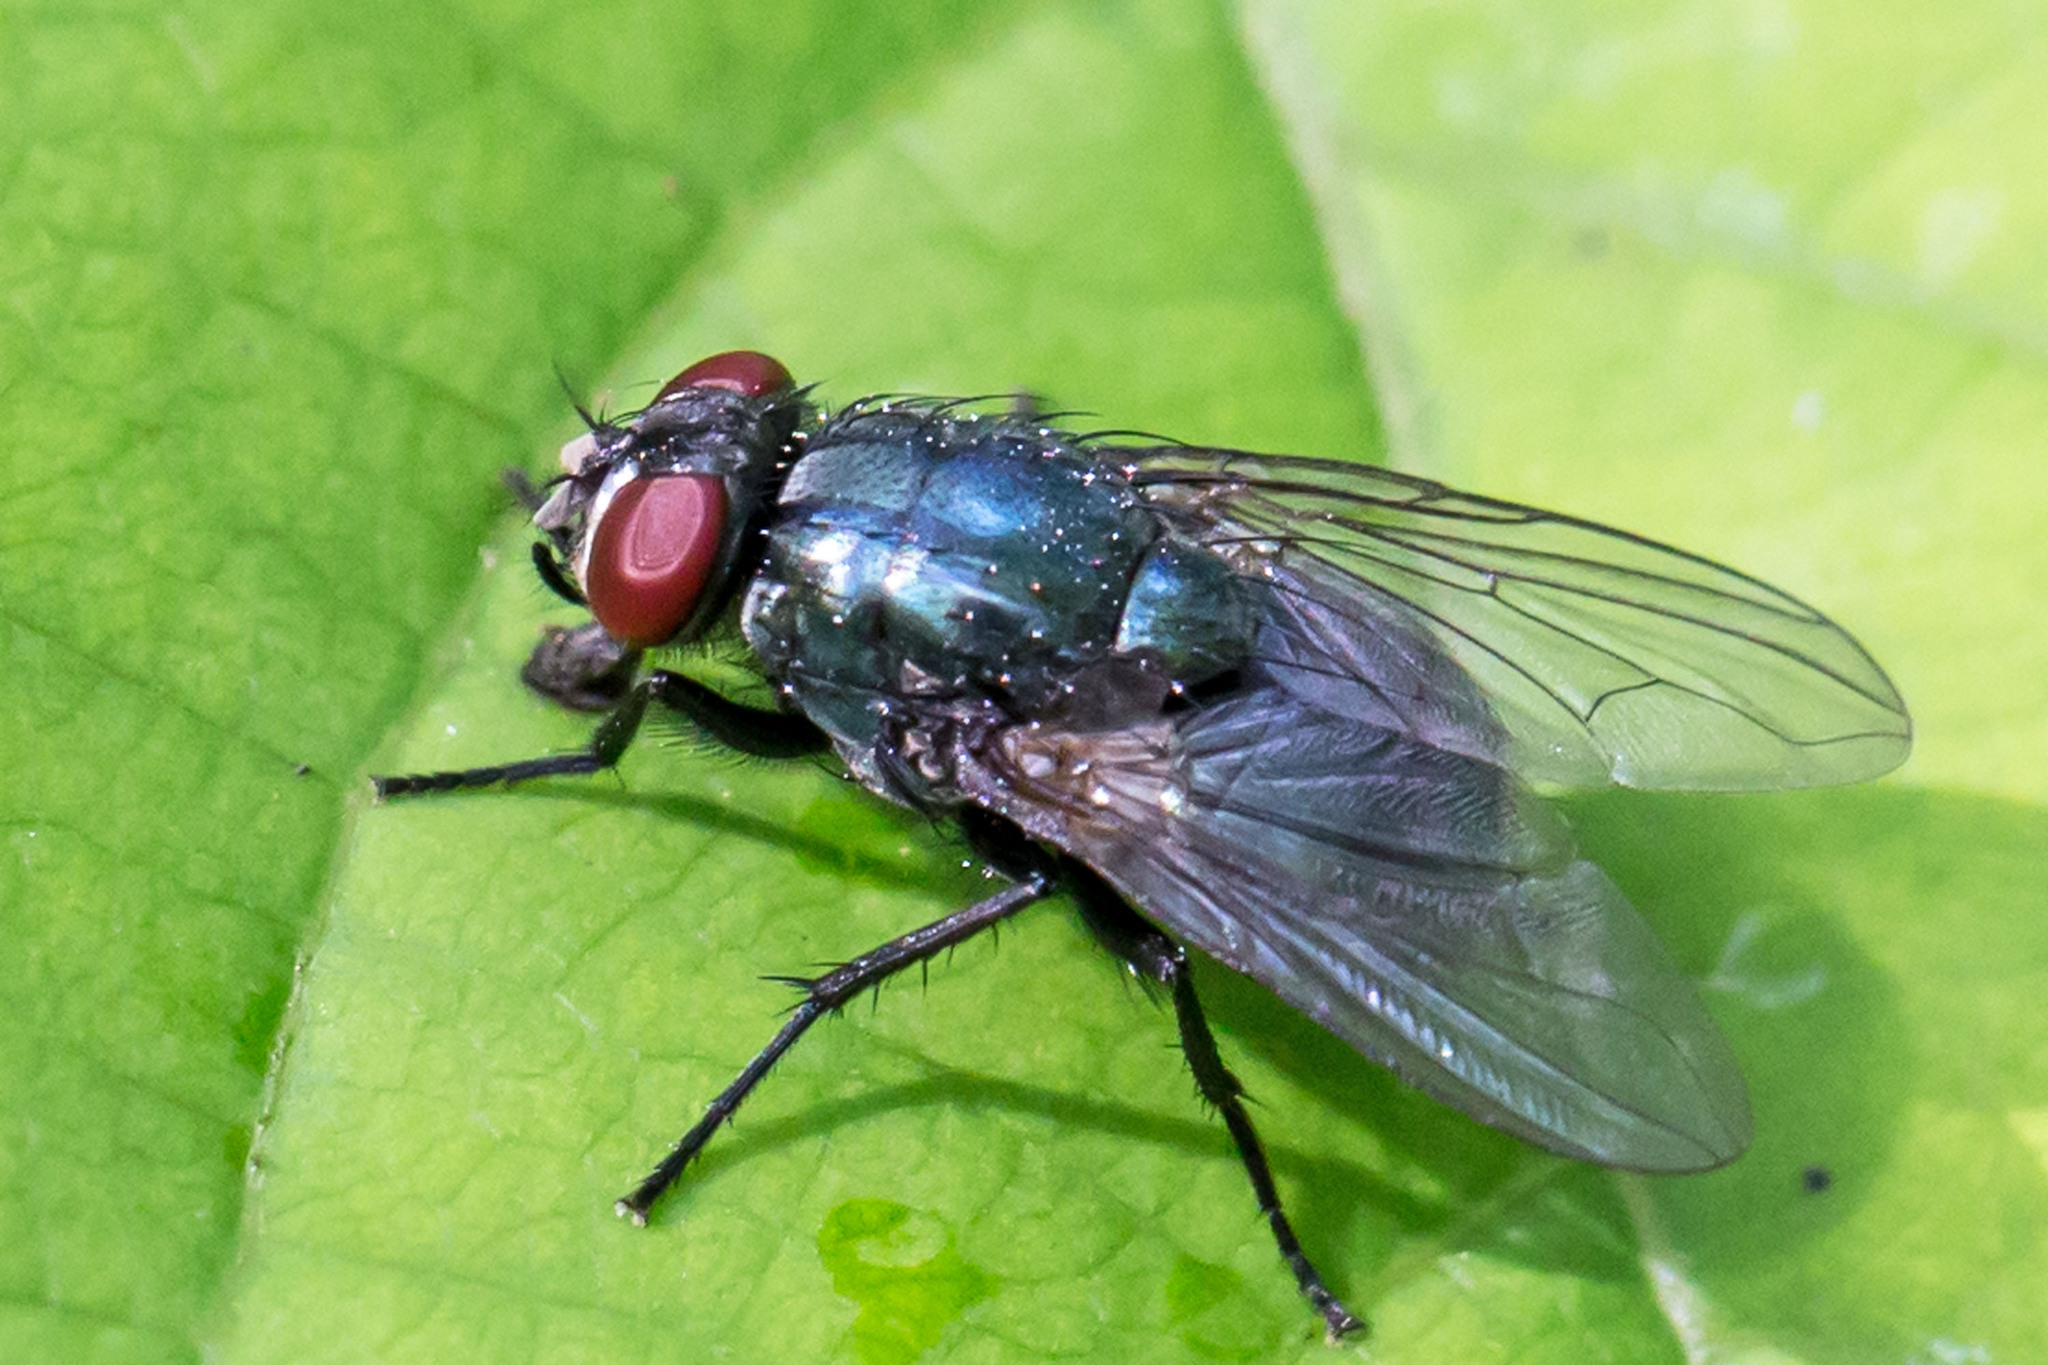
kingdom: Animalia
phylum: Arthropoda
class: Insecta
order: Diptera
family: Muscidae
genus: Eudasyphora
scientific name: Eudasyphora cyanicolor
